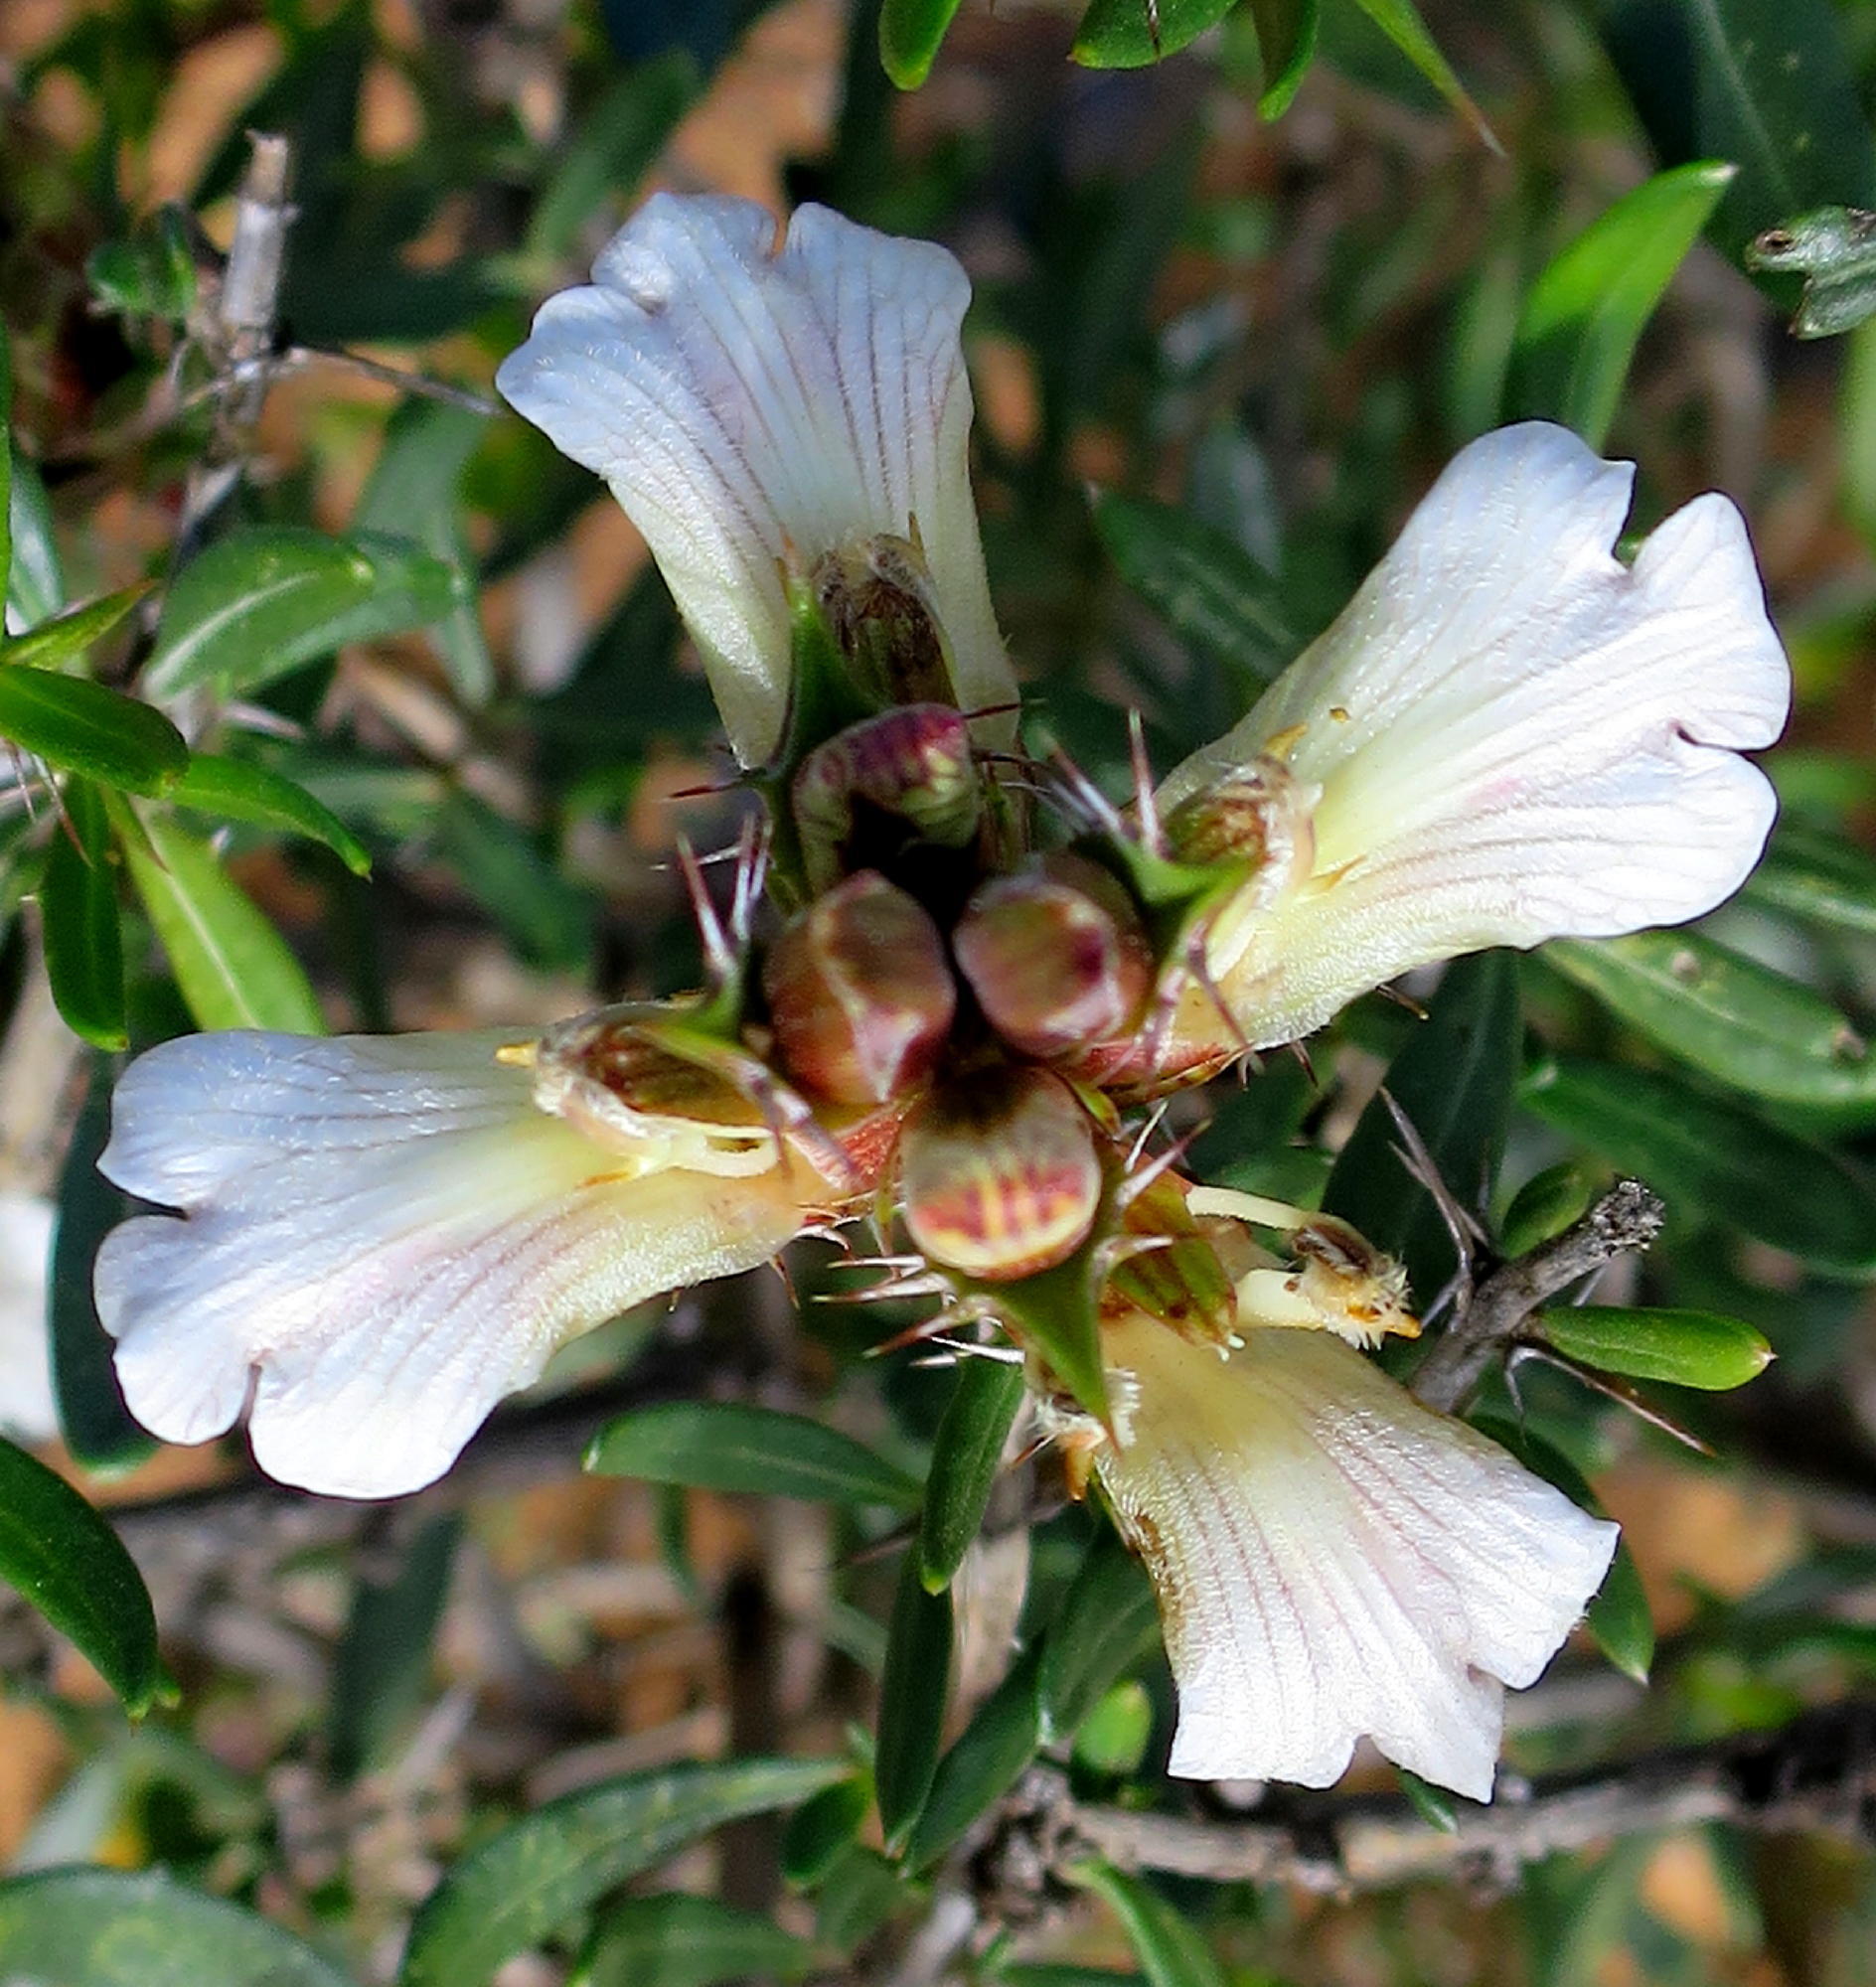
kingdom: Plantae
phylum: Tracheophyta
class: Magnoliopsida
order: Lamiales
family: Acanthaceae
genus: Blepharis
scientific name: Blepharis capensis
